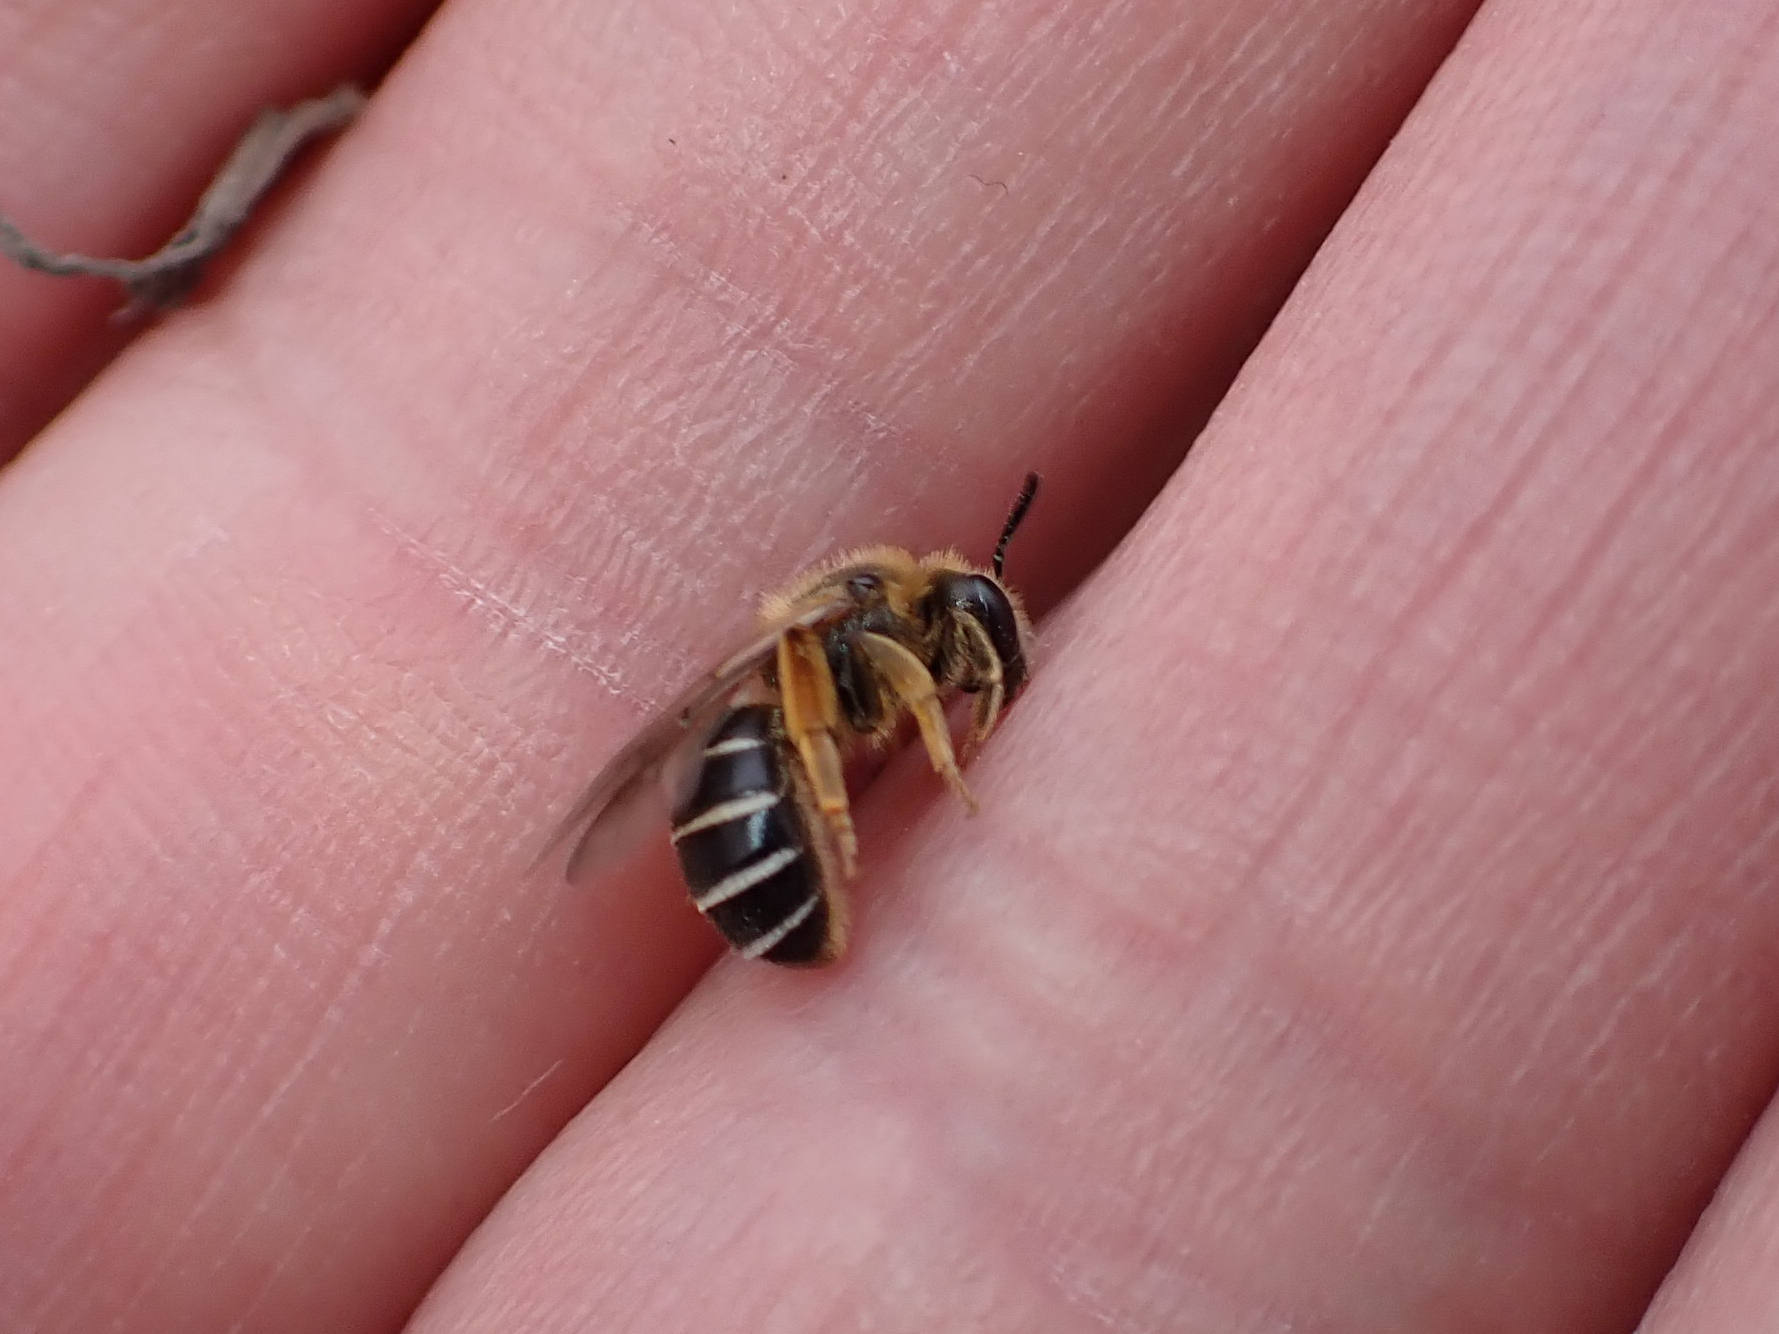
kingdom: Animalia
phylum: Arthropoda
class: Insecta
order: Hymenoptera
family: Halictidae
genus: Halictus
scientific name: Halictus rubicundus
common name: Orange-legged furrow bee
